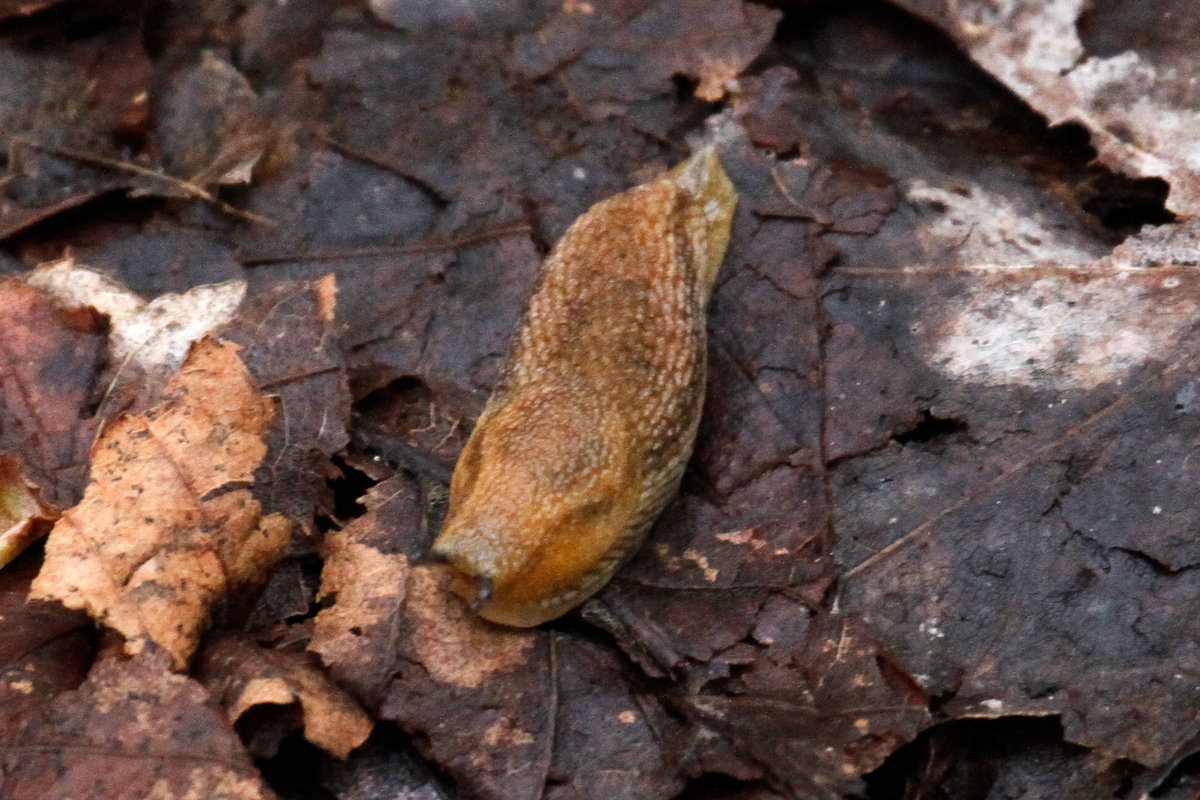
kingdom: Animalia
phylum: Mollusca
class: Gastropoda
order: Stylommatophora
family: Arionidae
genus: Arion
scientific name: Arion subfuscus
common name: Dusky arion
